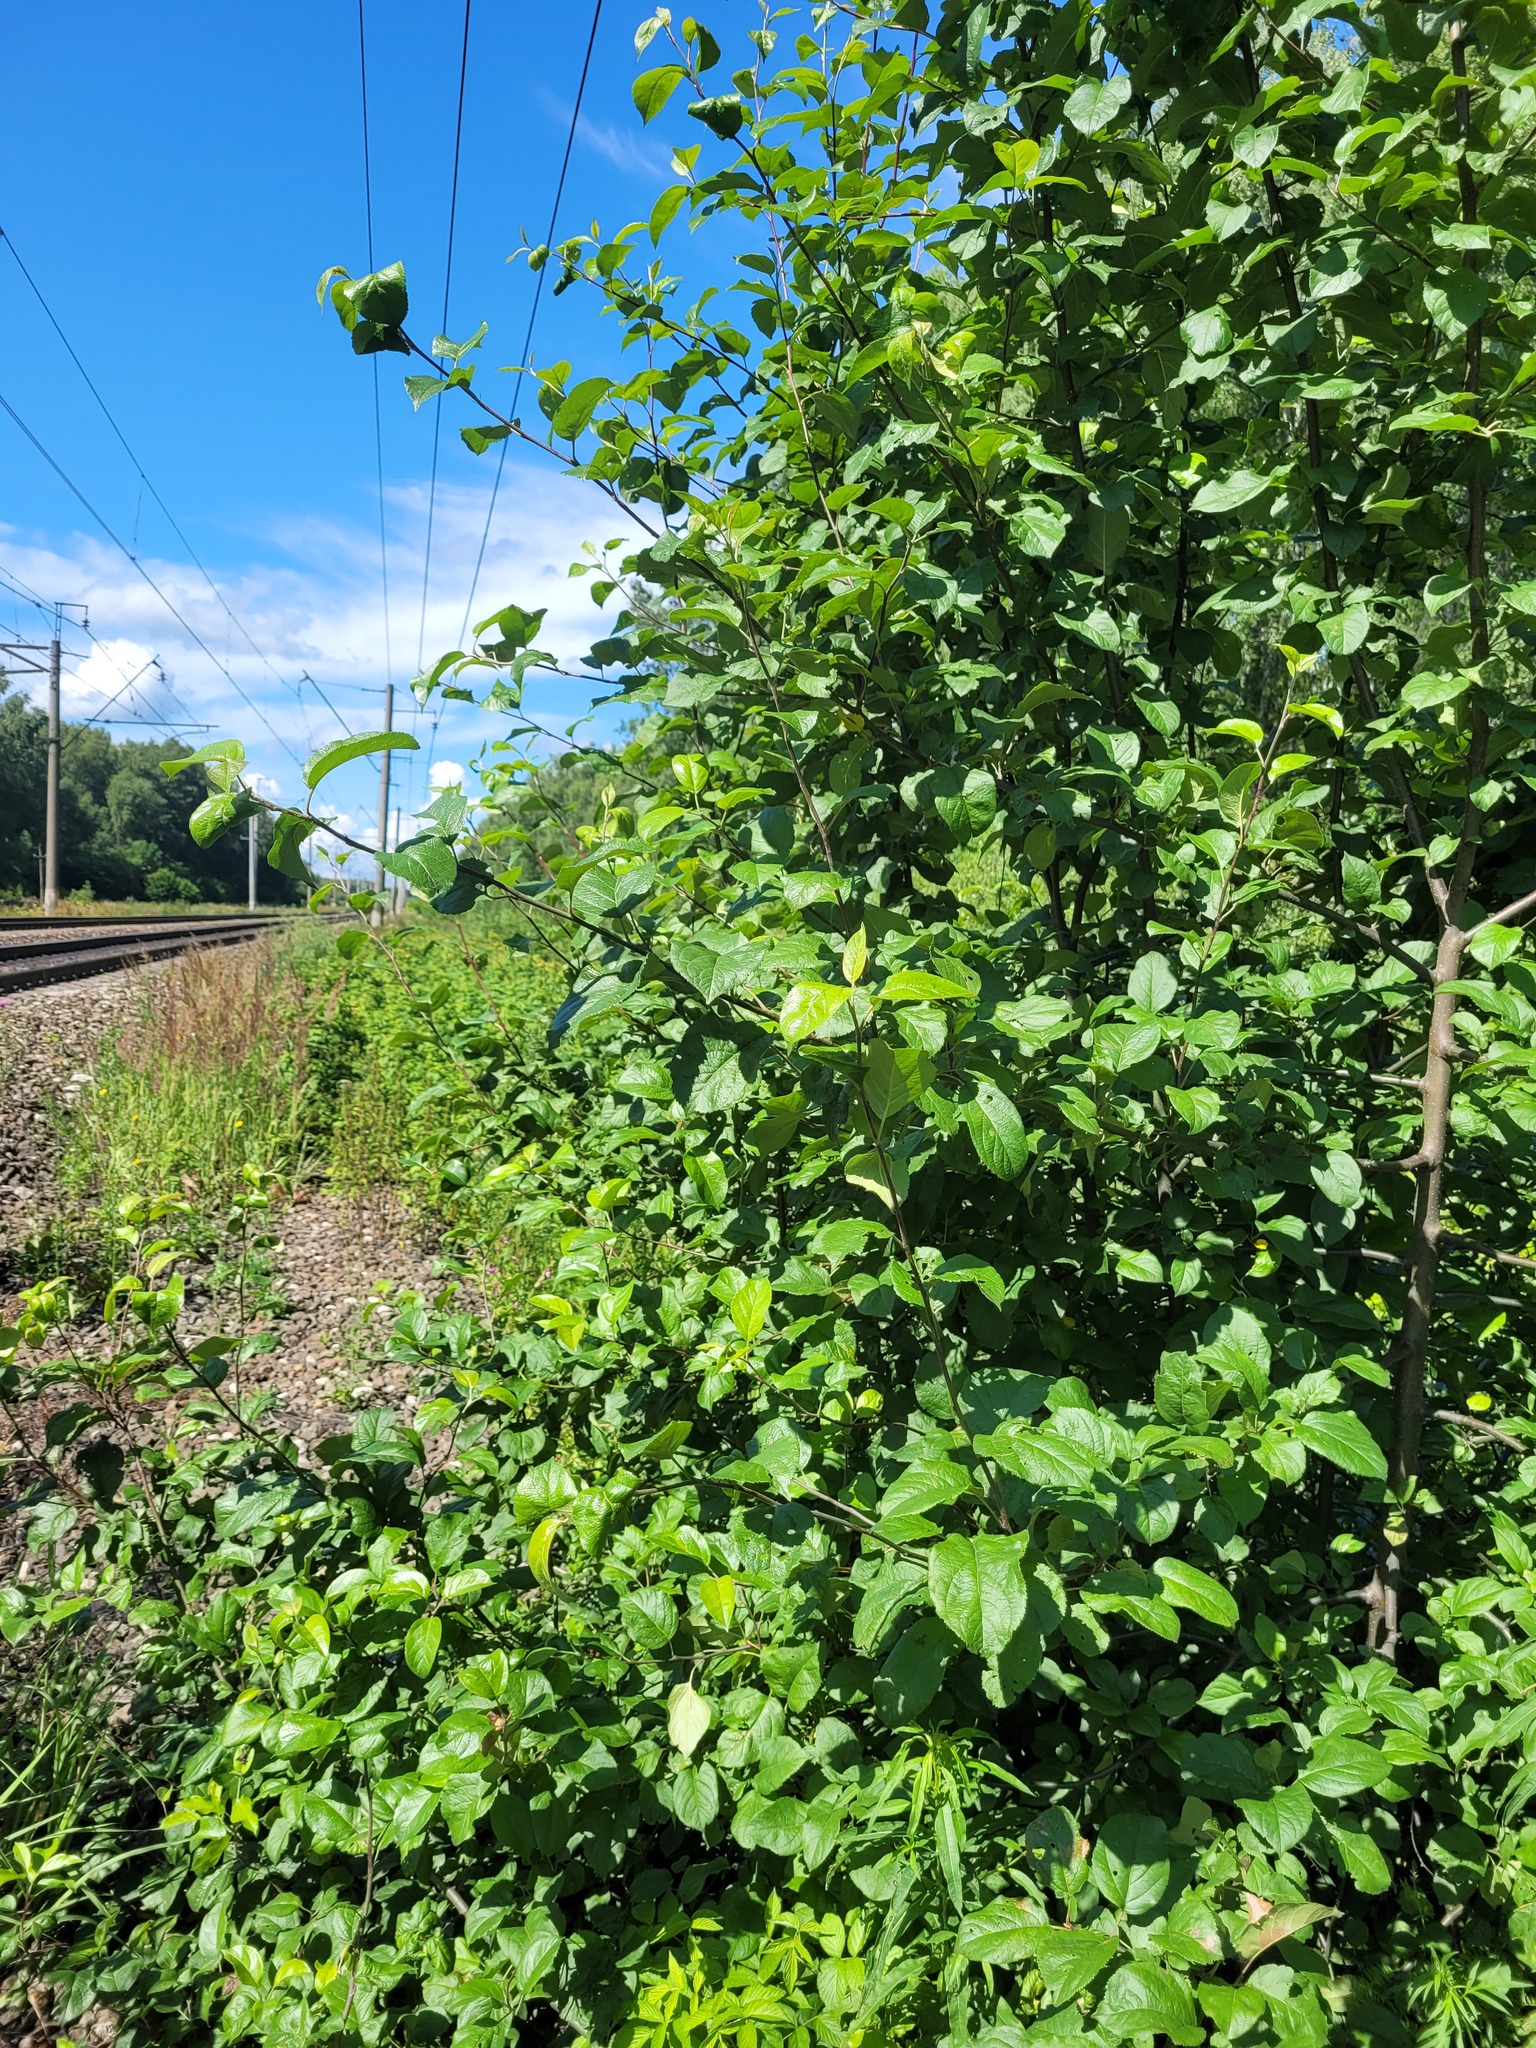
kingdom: Plantae
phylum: Tracheophyta
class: Magnoliopsida
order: Rosales
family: Rosaceae
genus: Malus
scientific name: Malus domestica
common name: Apple
